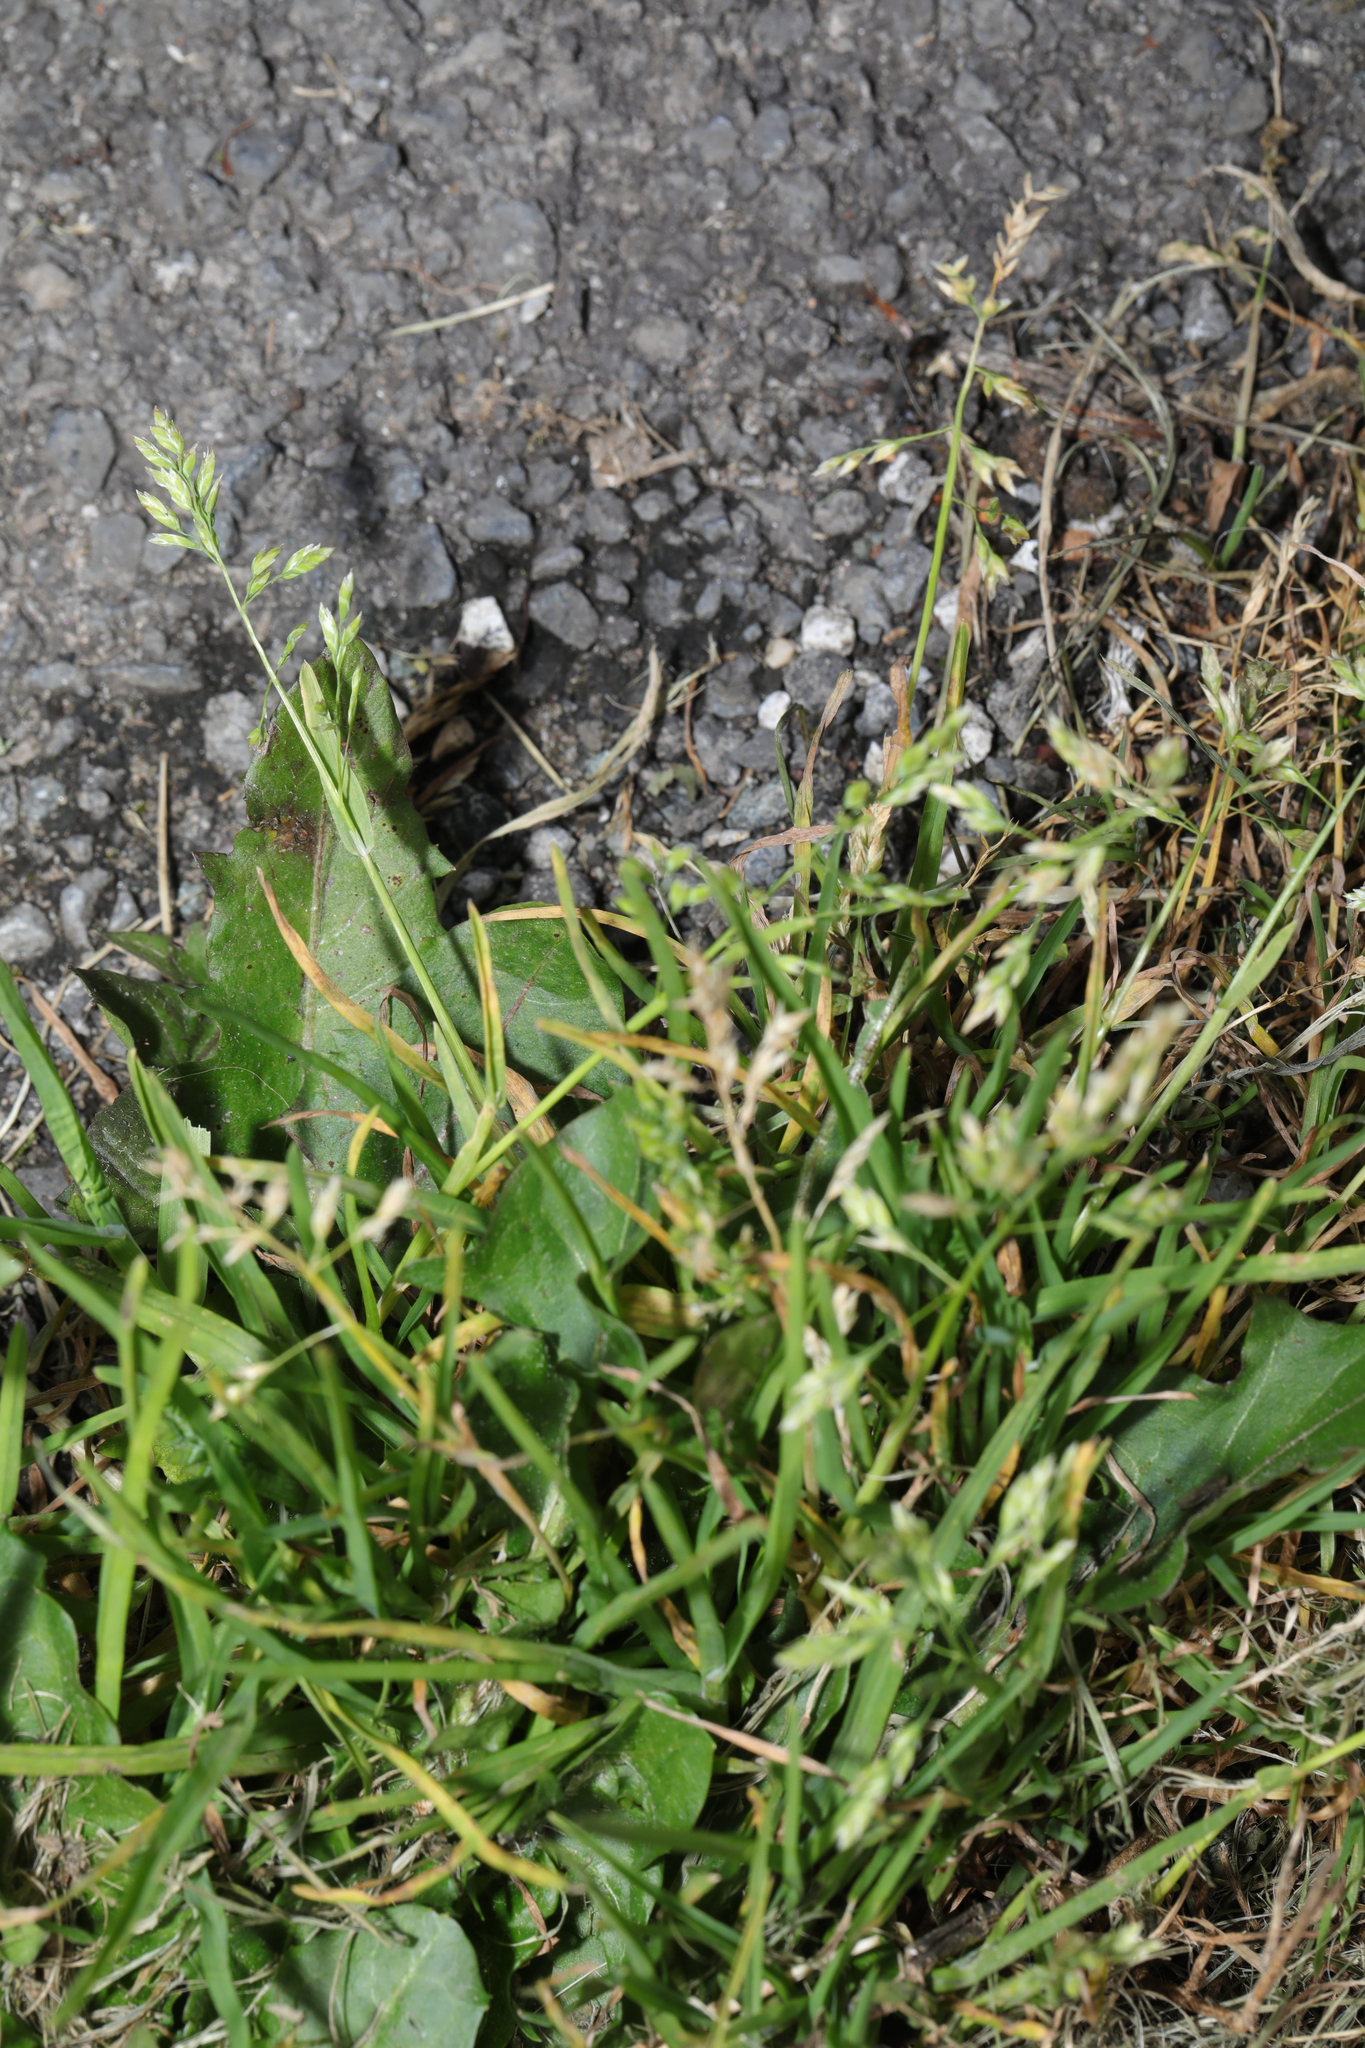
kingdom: Plantae
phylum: Tracheophyta
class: Liliopsida
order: Poales
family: Poaceae
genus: Poa
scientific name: Poa annua
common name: Annual bluegrass
